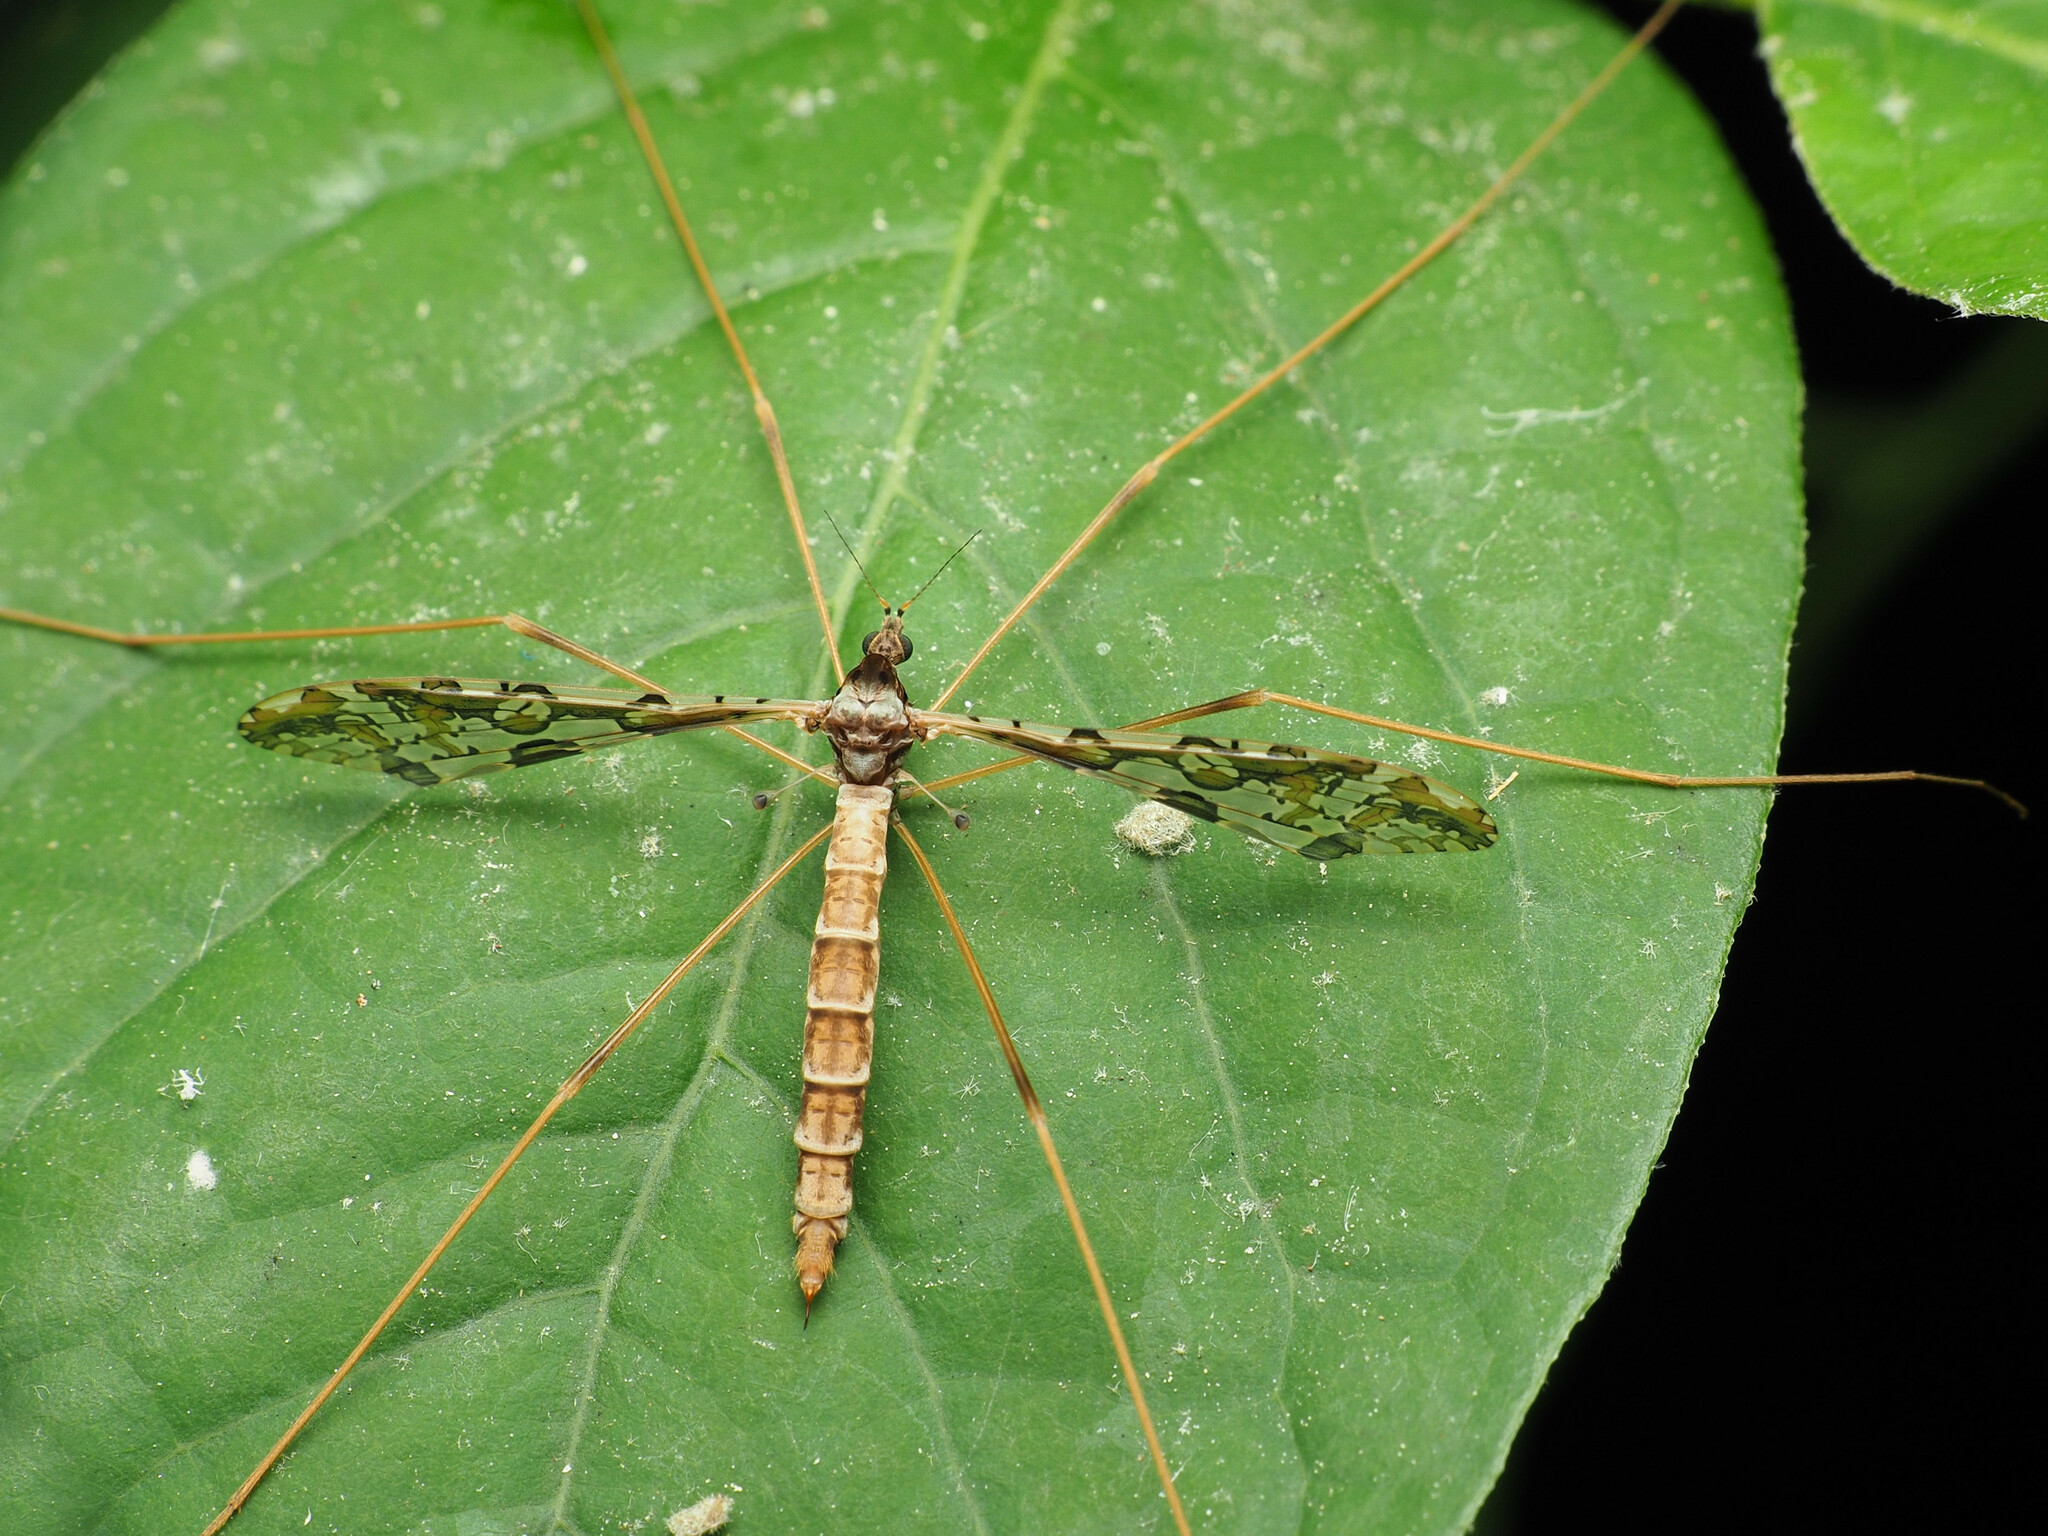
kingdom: Animalia
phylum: Arthropoda
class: Insecta
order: Diptera
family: Limoniidae
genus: Epiphragma
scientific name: Epiphragma solatrix
